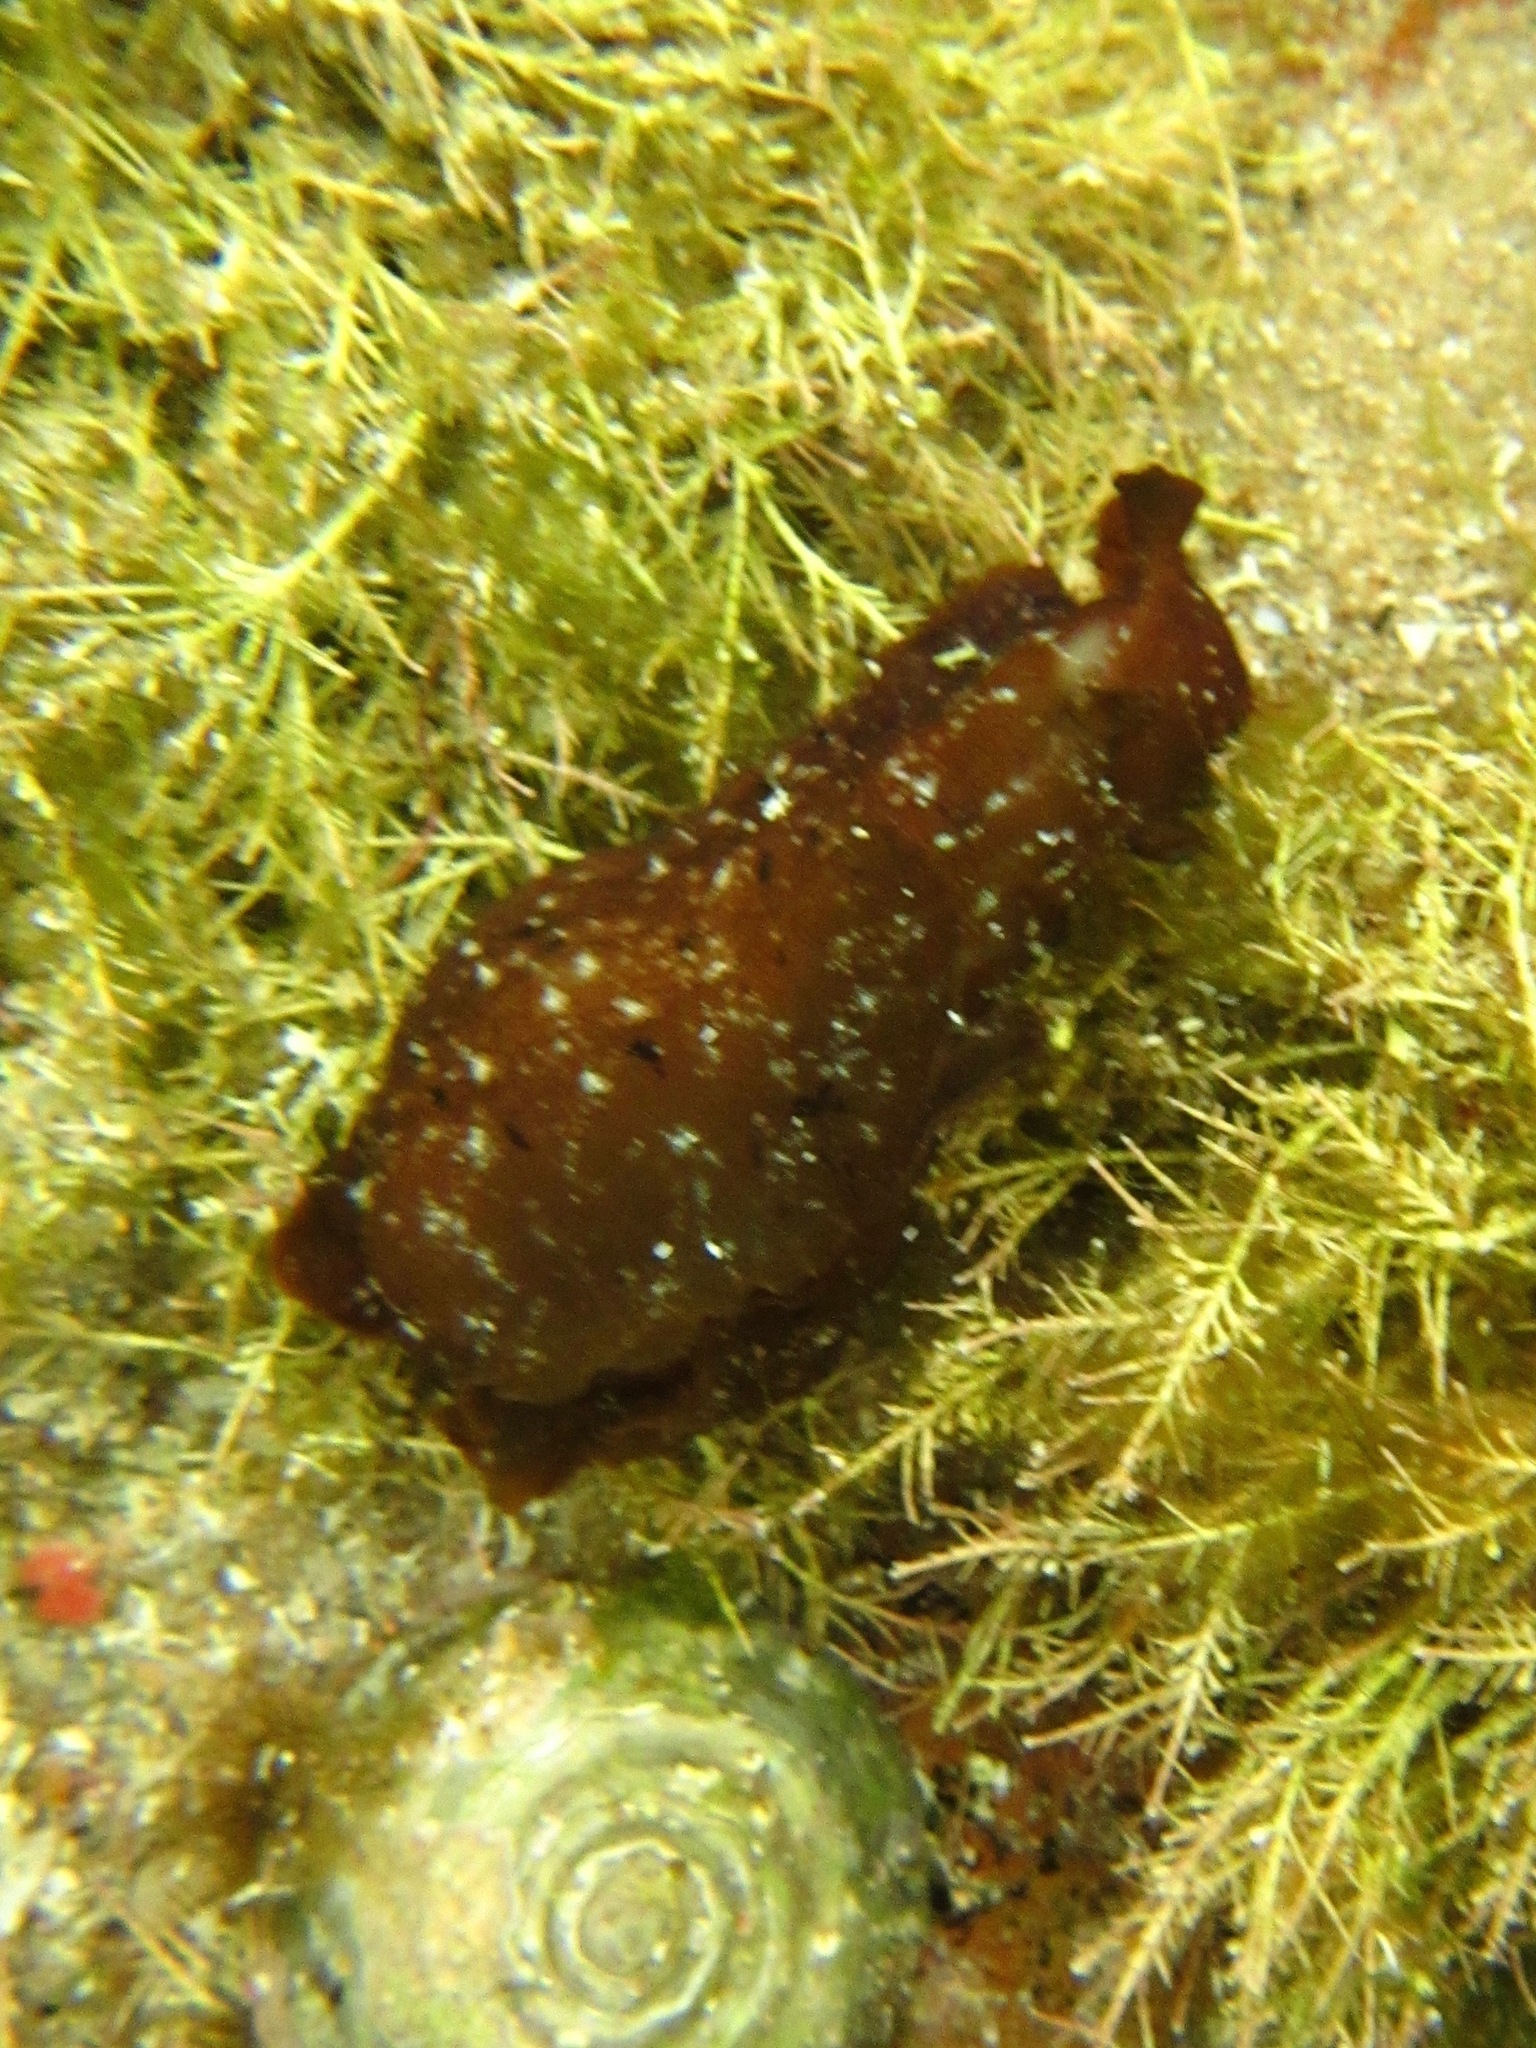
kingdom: Animalia
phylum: Mollusca
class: Gastropoda
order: Aplysiida
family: Aplysiidae
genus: Aplysia
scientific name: Aplysia sydneyensis
